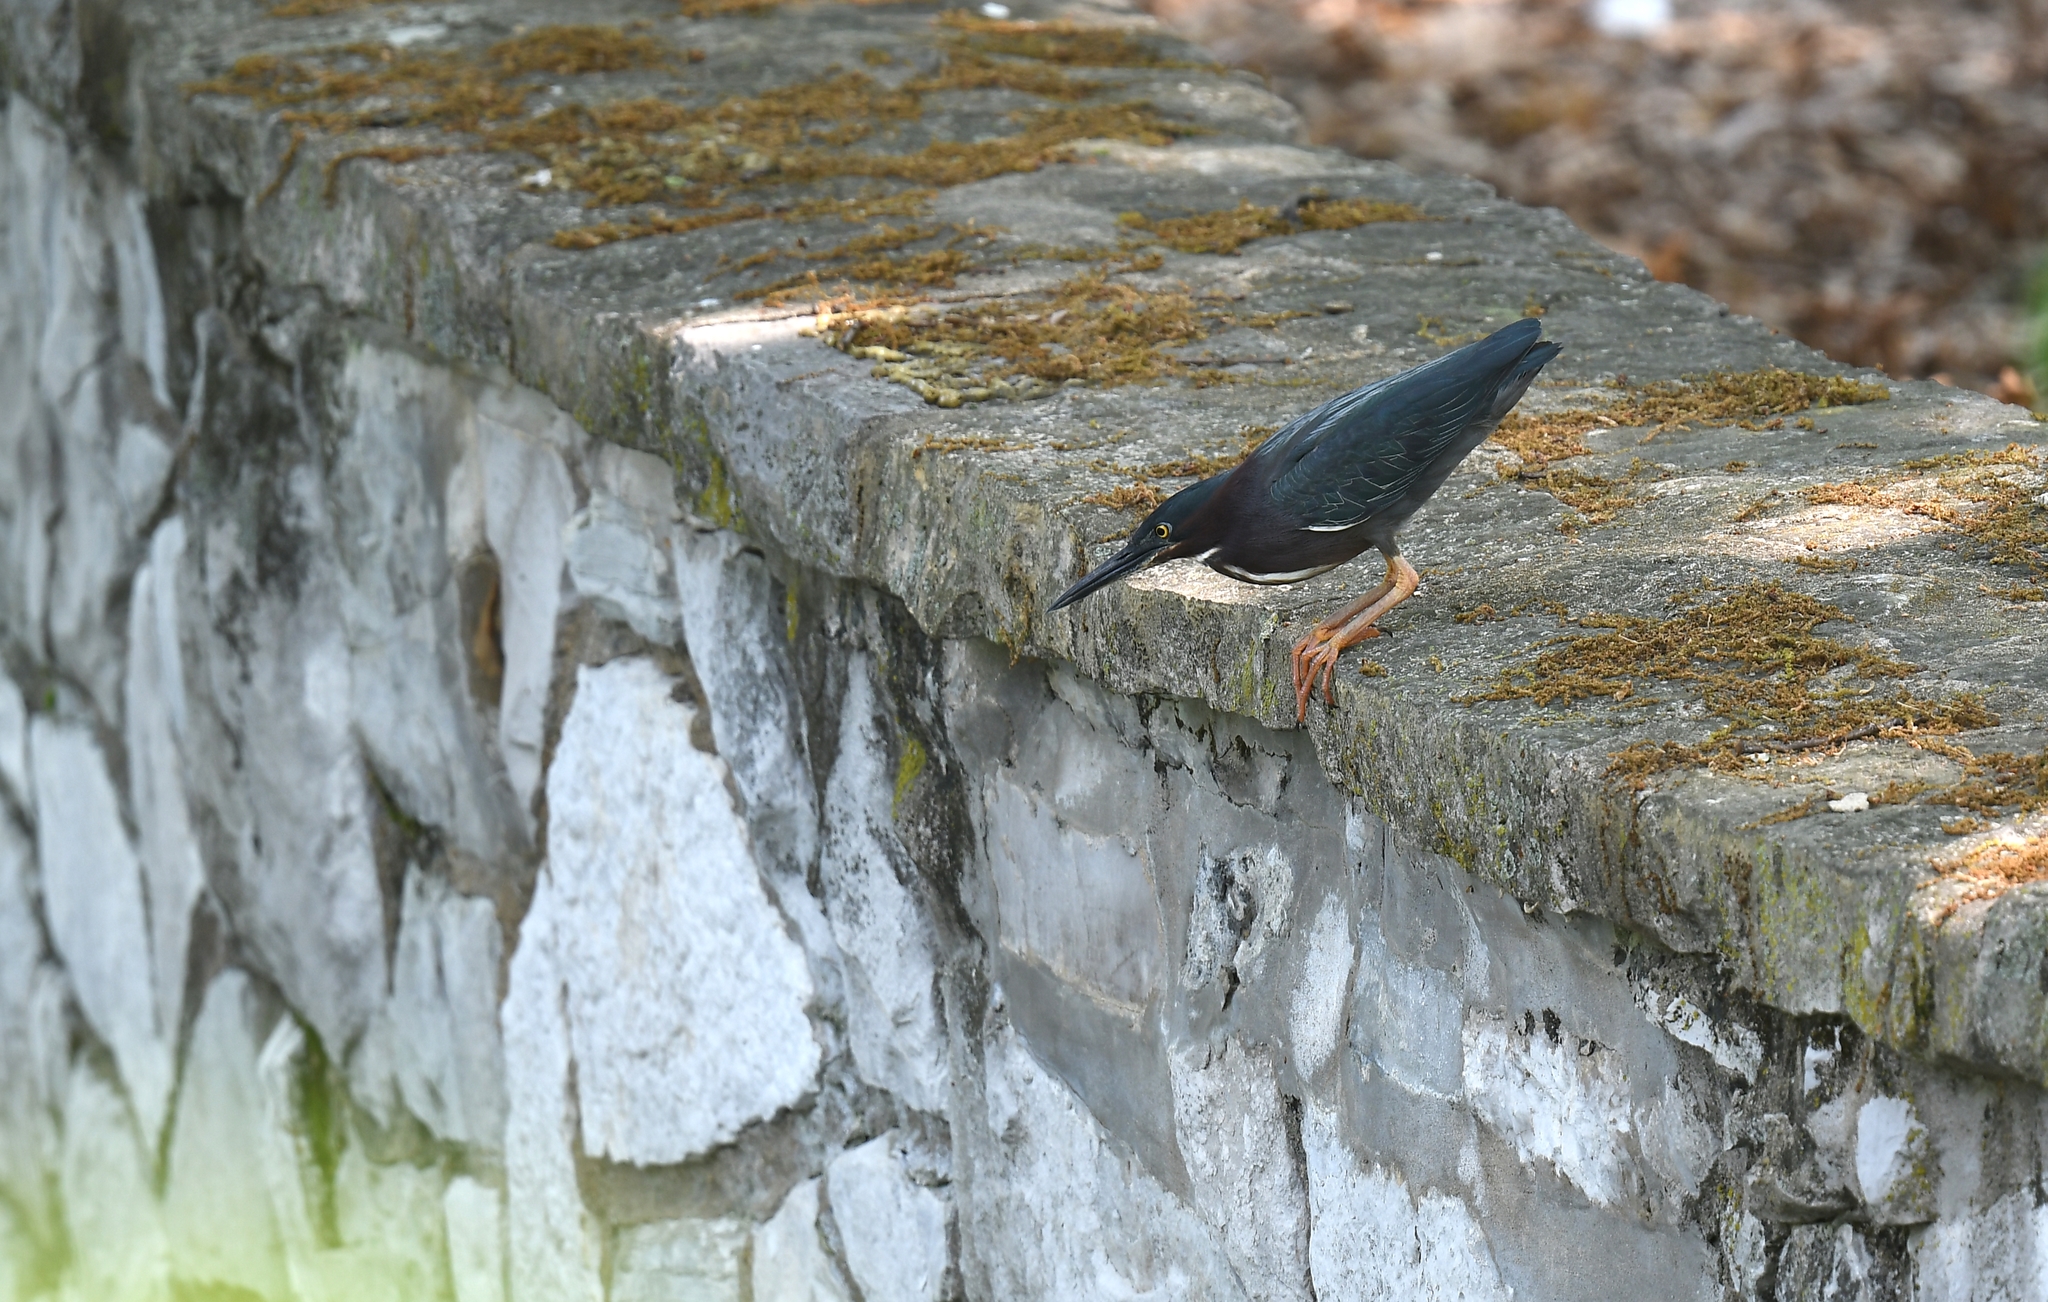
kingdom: Animalia
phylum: Chordata
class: Aves
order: Pelecaniformes
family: Ardeidae
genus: Butorides
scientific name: Butorides virescens
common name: Green heron
